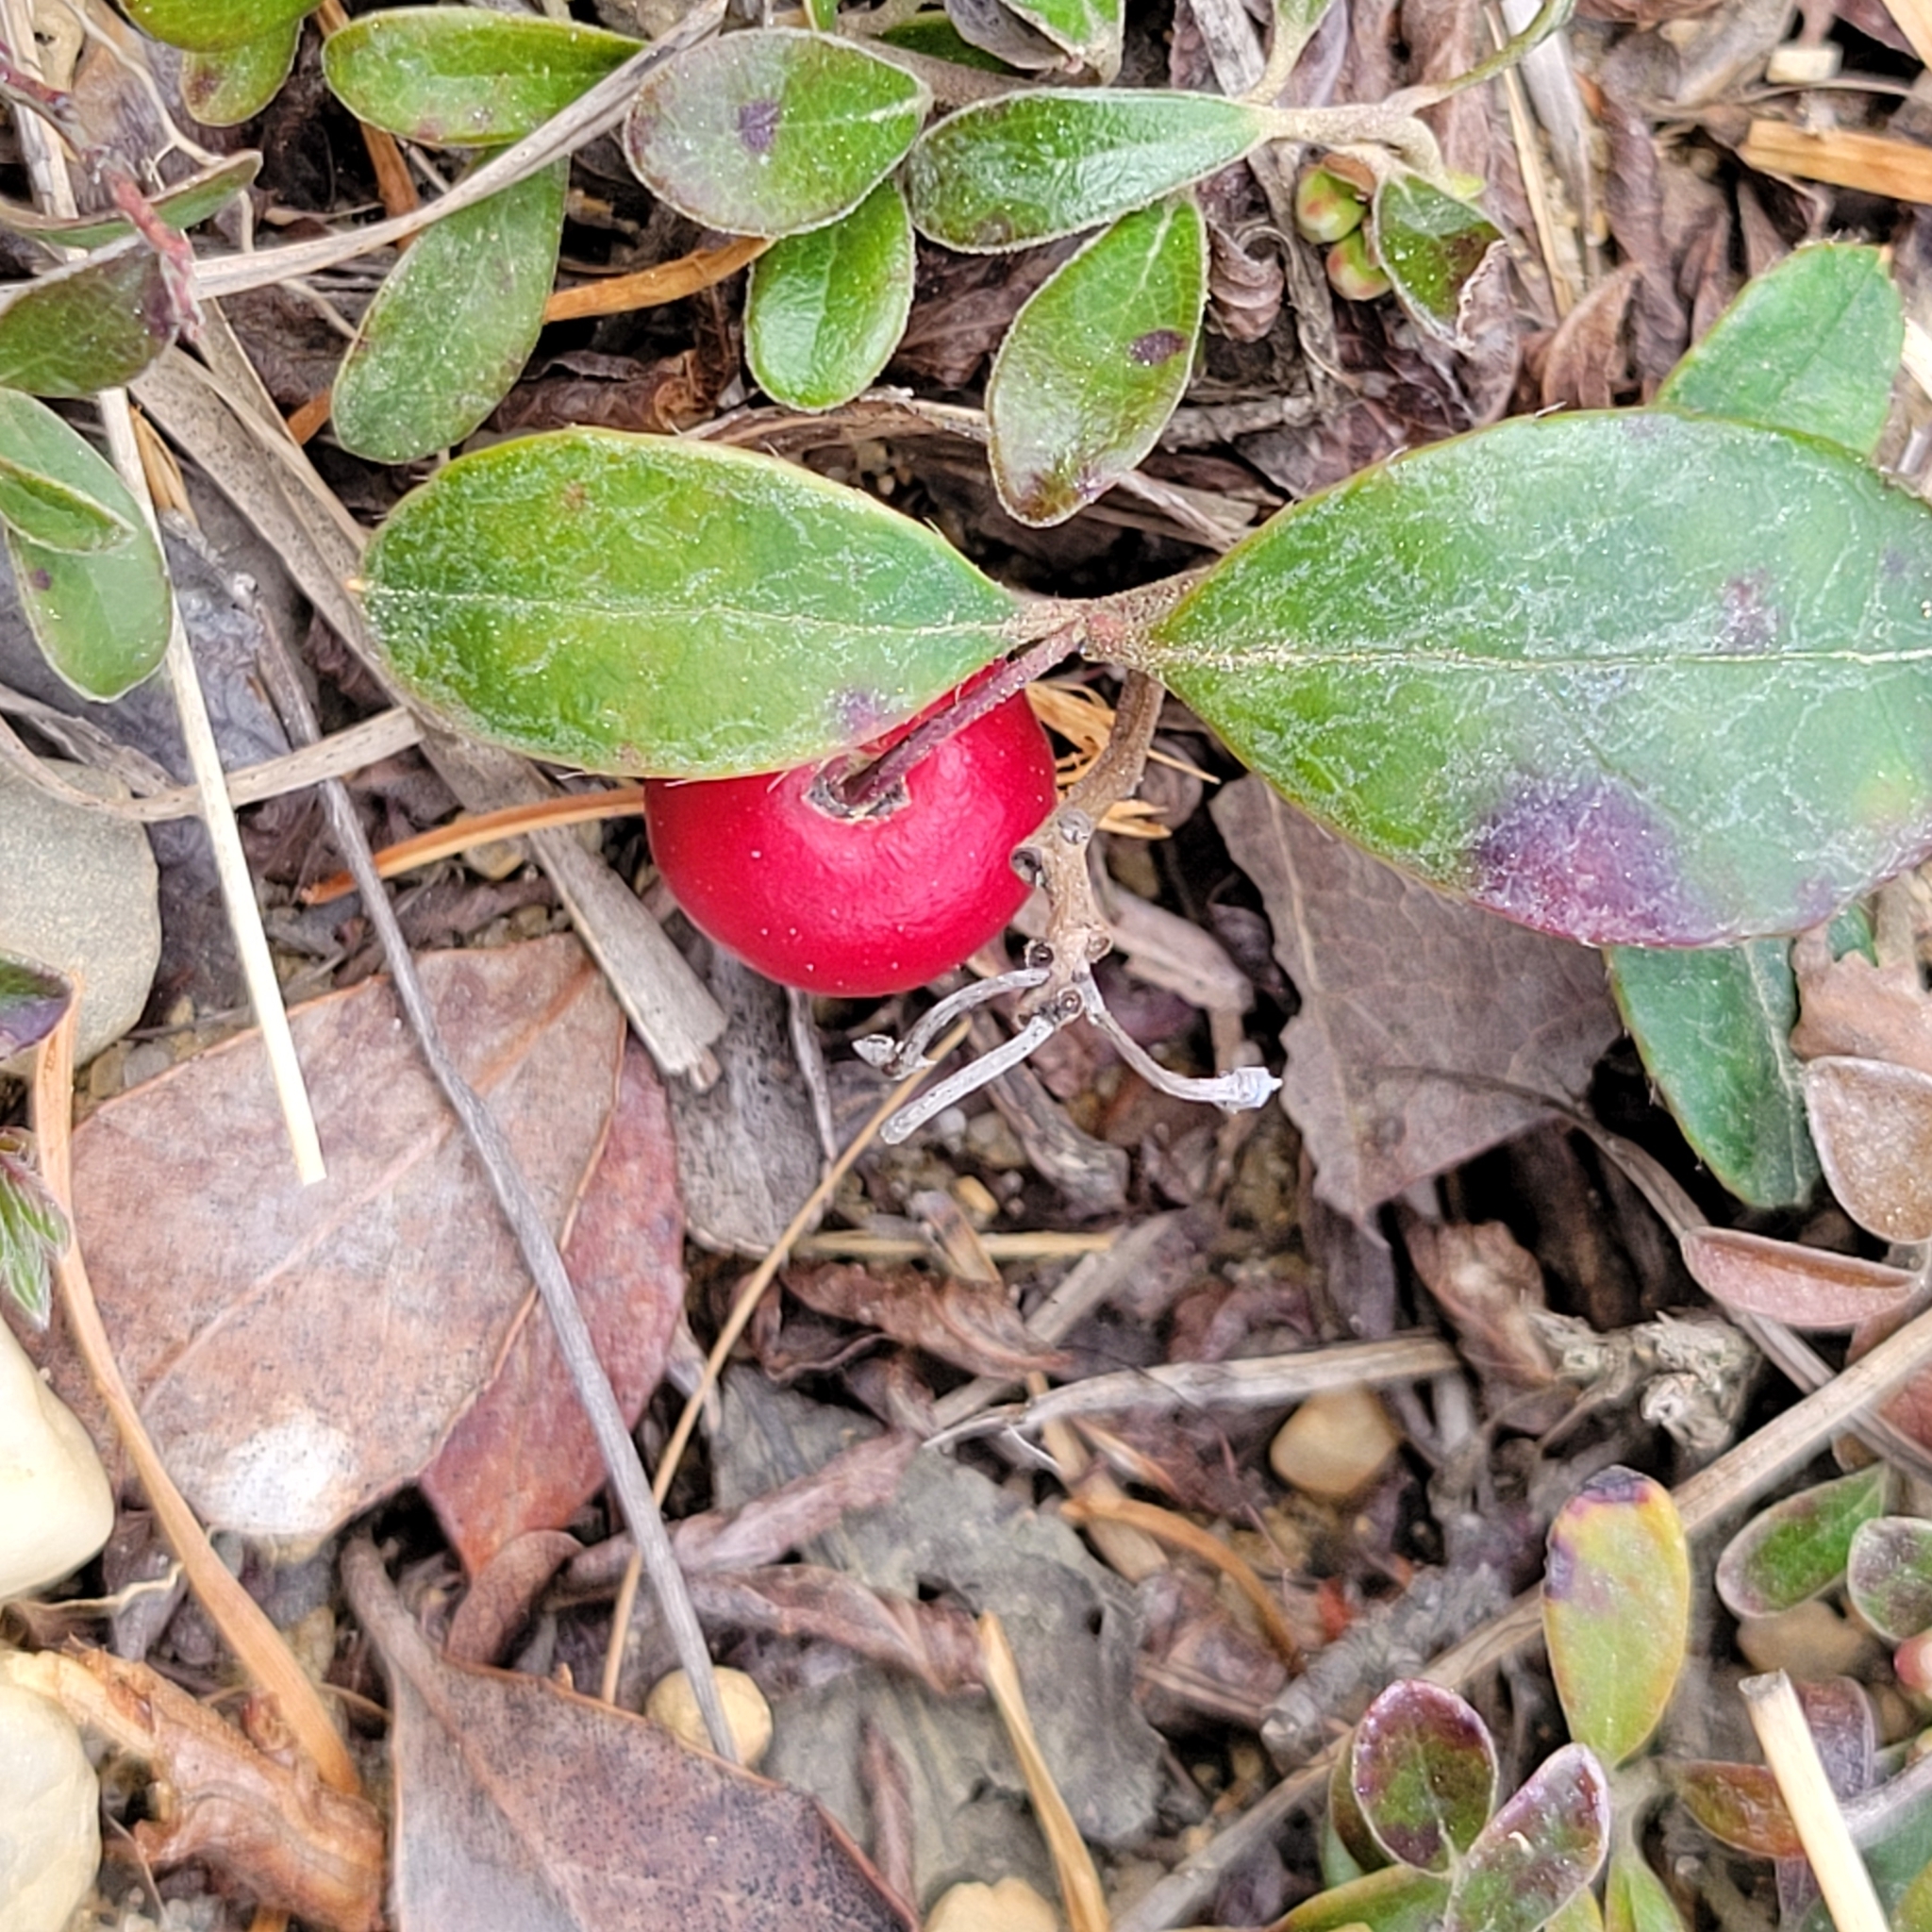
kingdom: Plantae
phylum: Tracheophyta
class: Magnoliopsida
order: Ericales
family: Ericaceae
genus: Gaultheria
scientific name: Gaultheria procumbens
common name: Checkerberry
